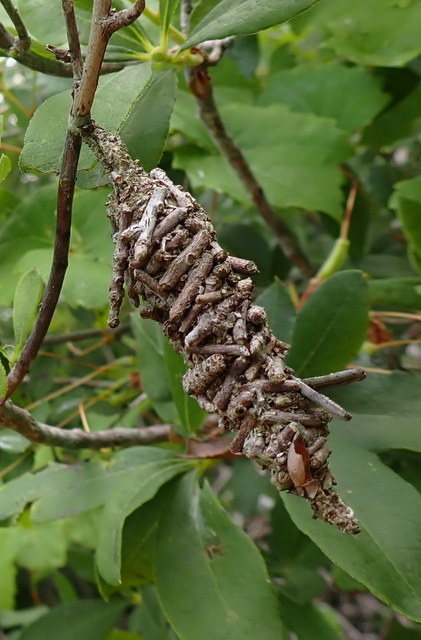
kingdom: Animalia
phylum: Arthropoda
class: Insecta
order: Lepidoptera
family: Psychidae
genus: Oiketicus
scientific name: Oiketicus
